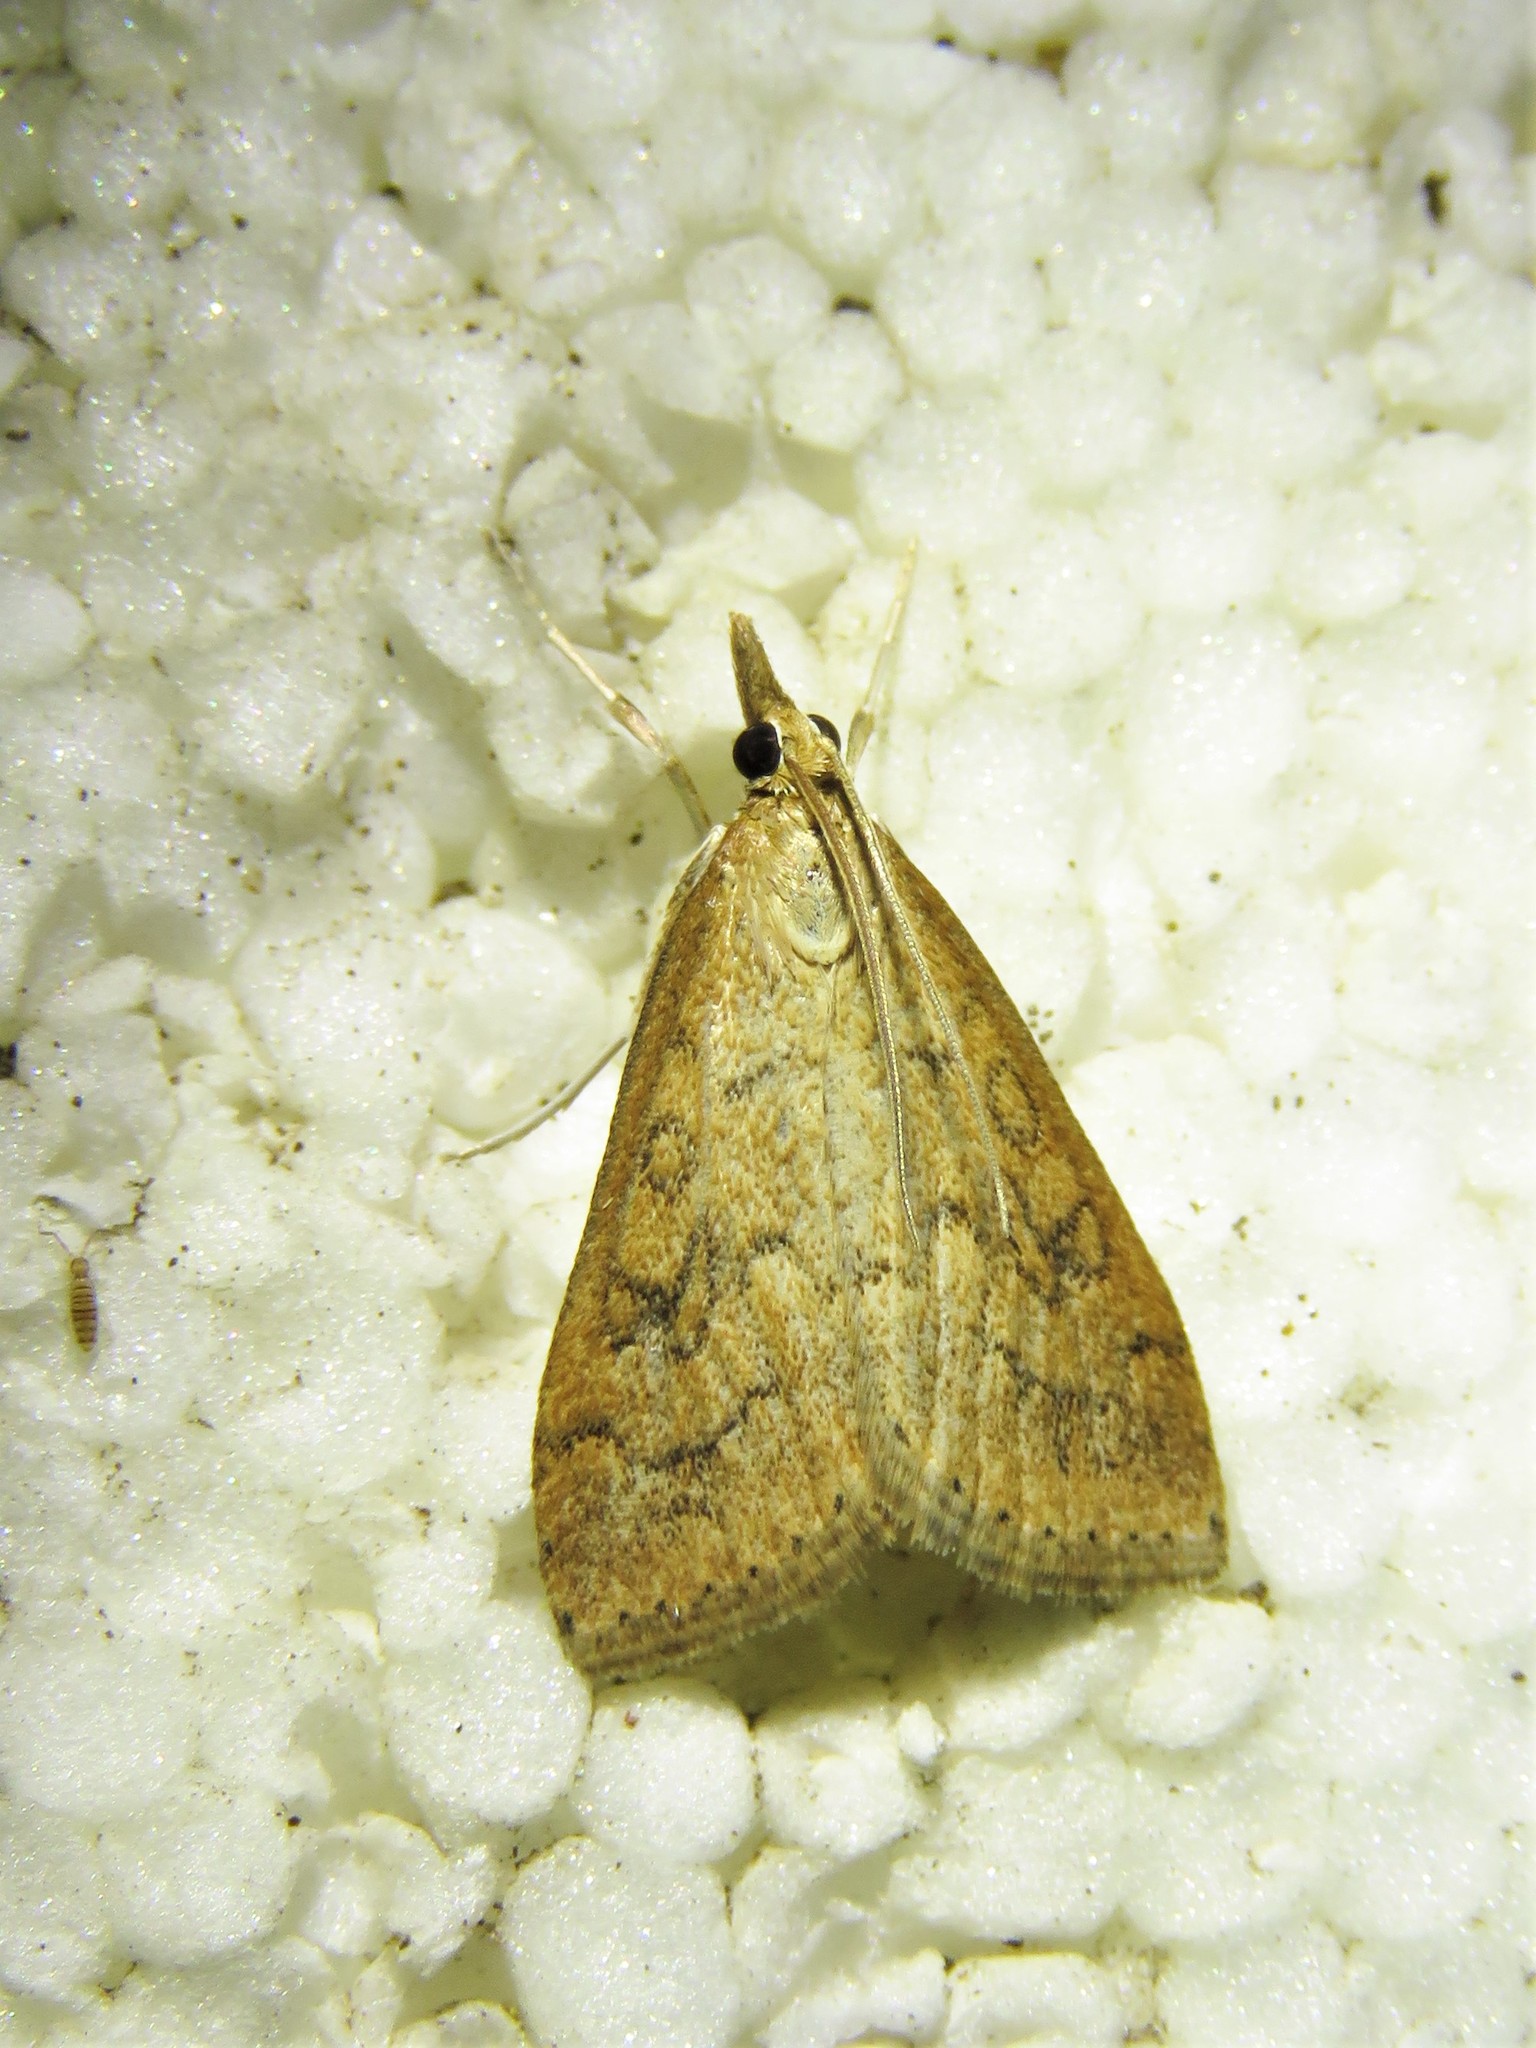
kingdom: Animalia
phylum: Arthropoda
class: Insecta
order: Lepidoptera
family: Crambidae
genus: Udea
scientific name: Udea rubigalis
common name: Celery leaftier moth
